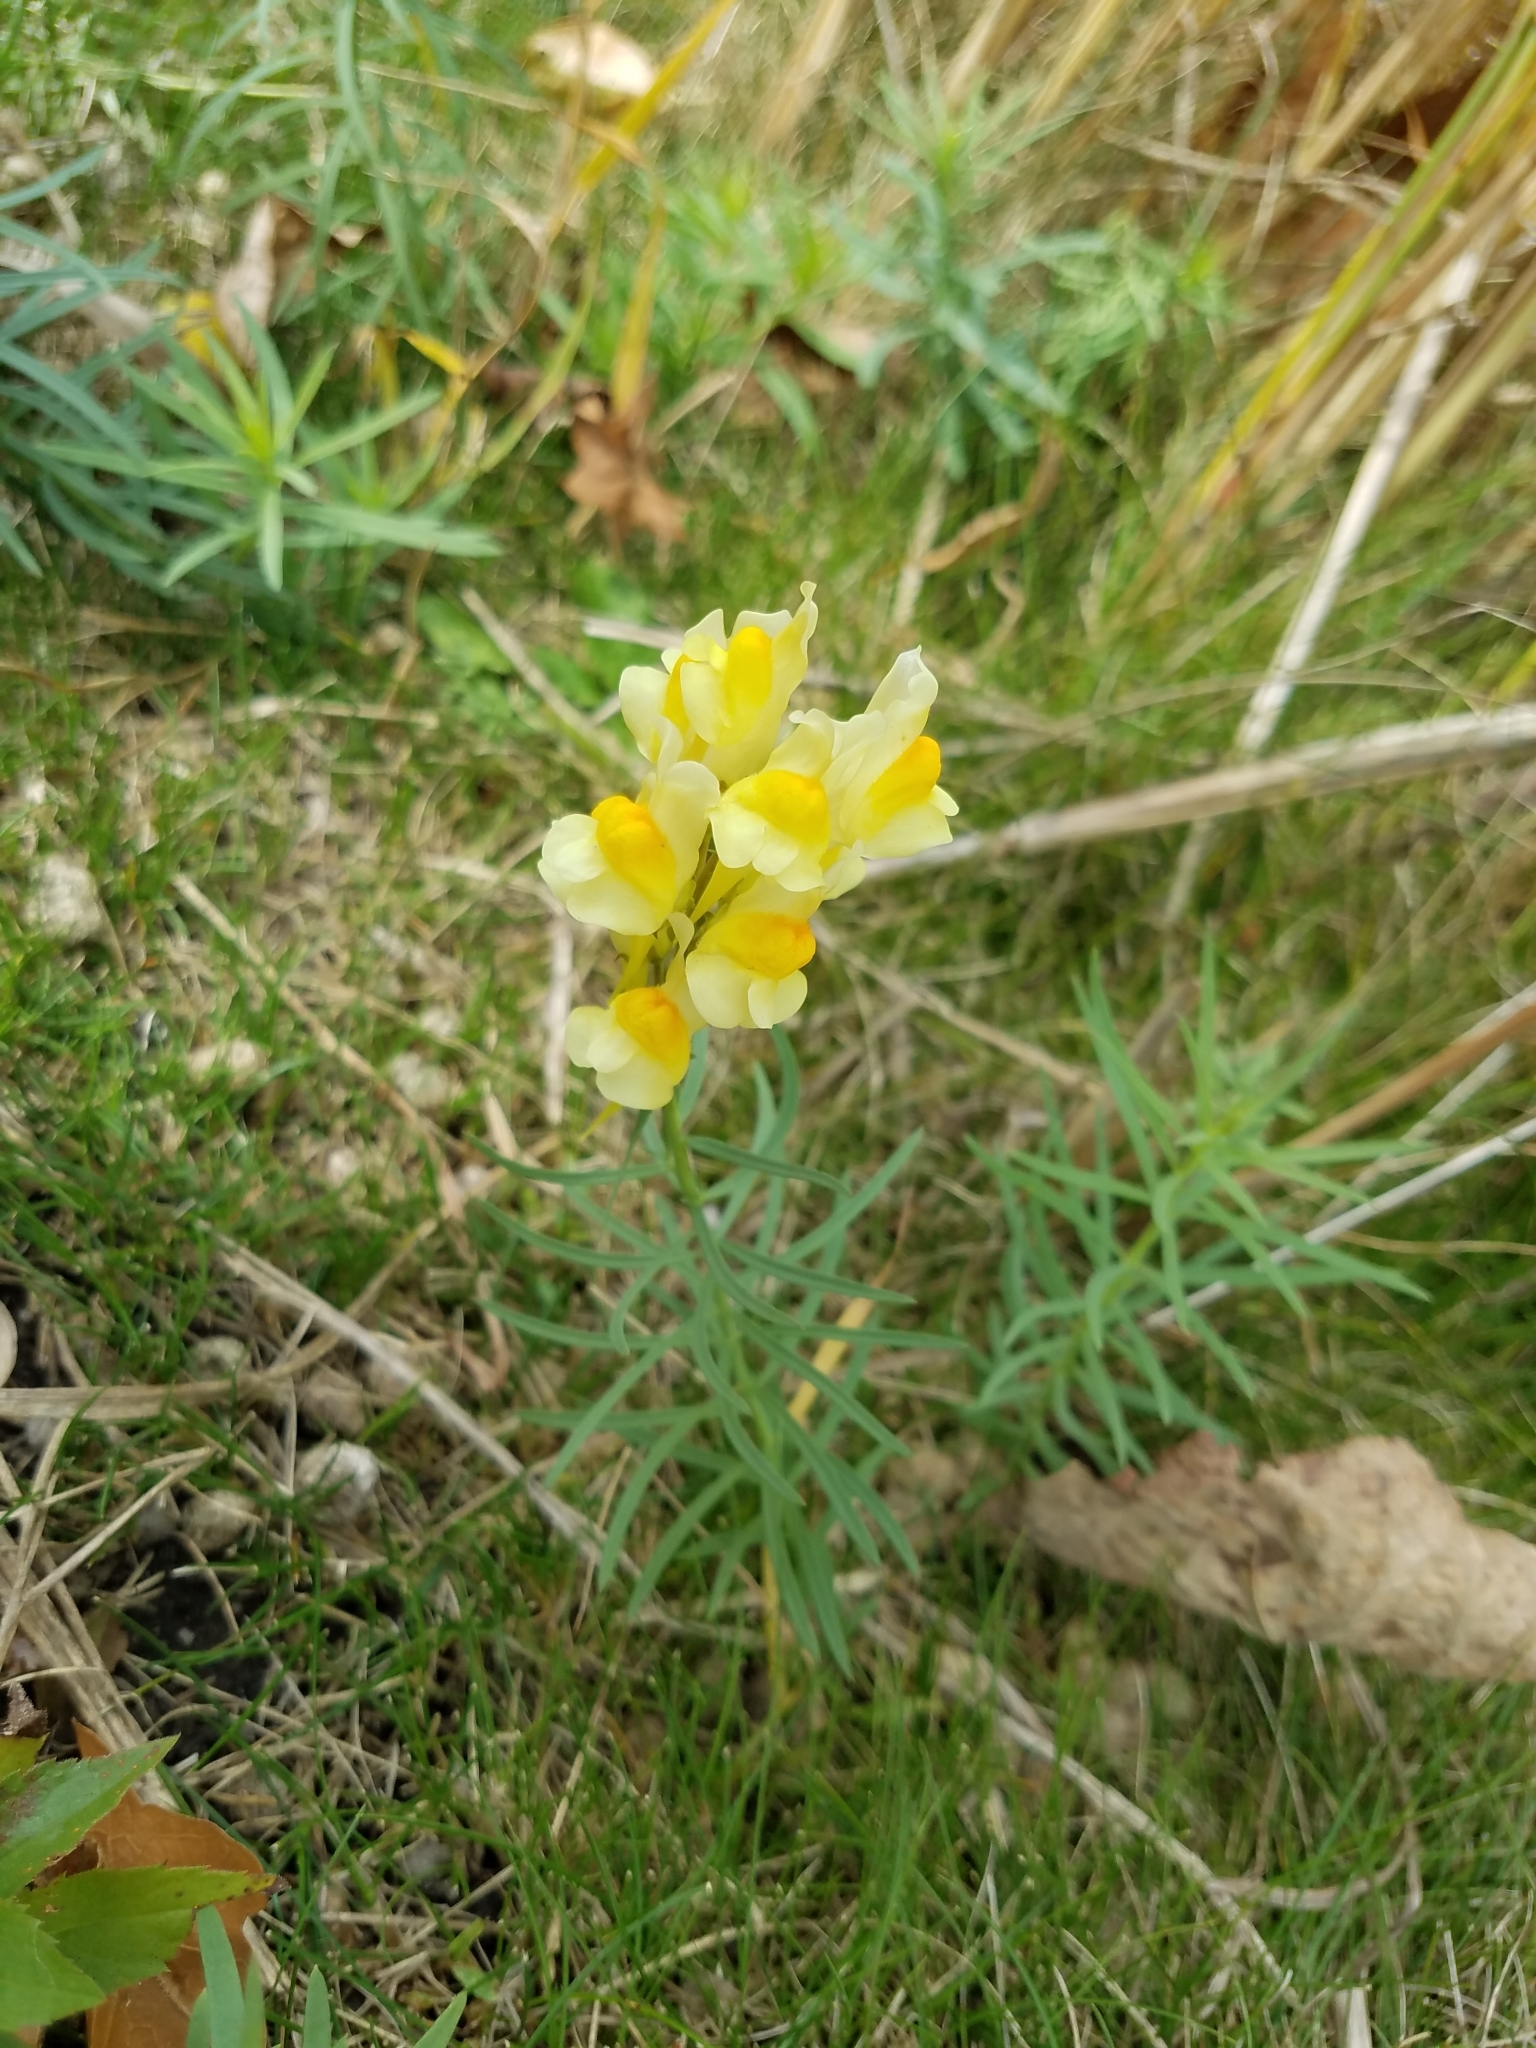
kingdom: Plantae
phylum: Tracheophyta
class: Magnoliopsida
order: Lamiales
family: Plantaginaceae
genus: Linaria
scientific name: Linaria vulgaris
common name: Butter and eggs
